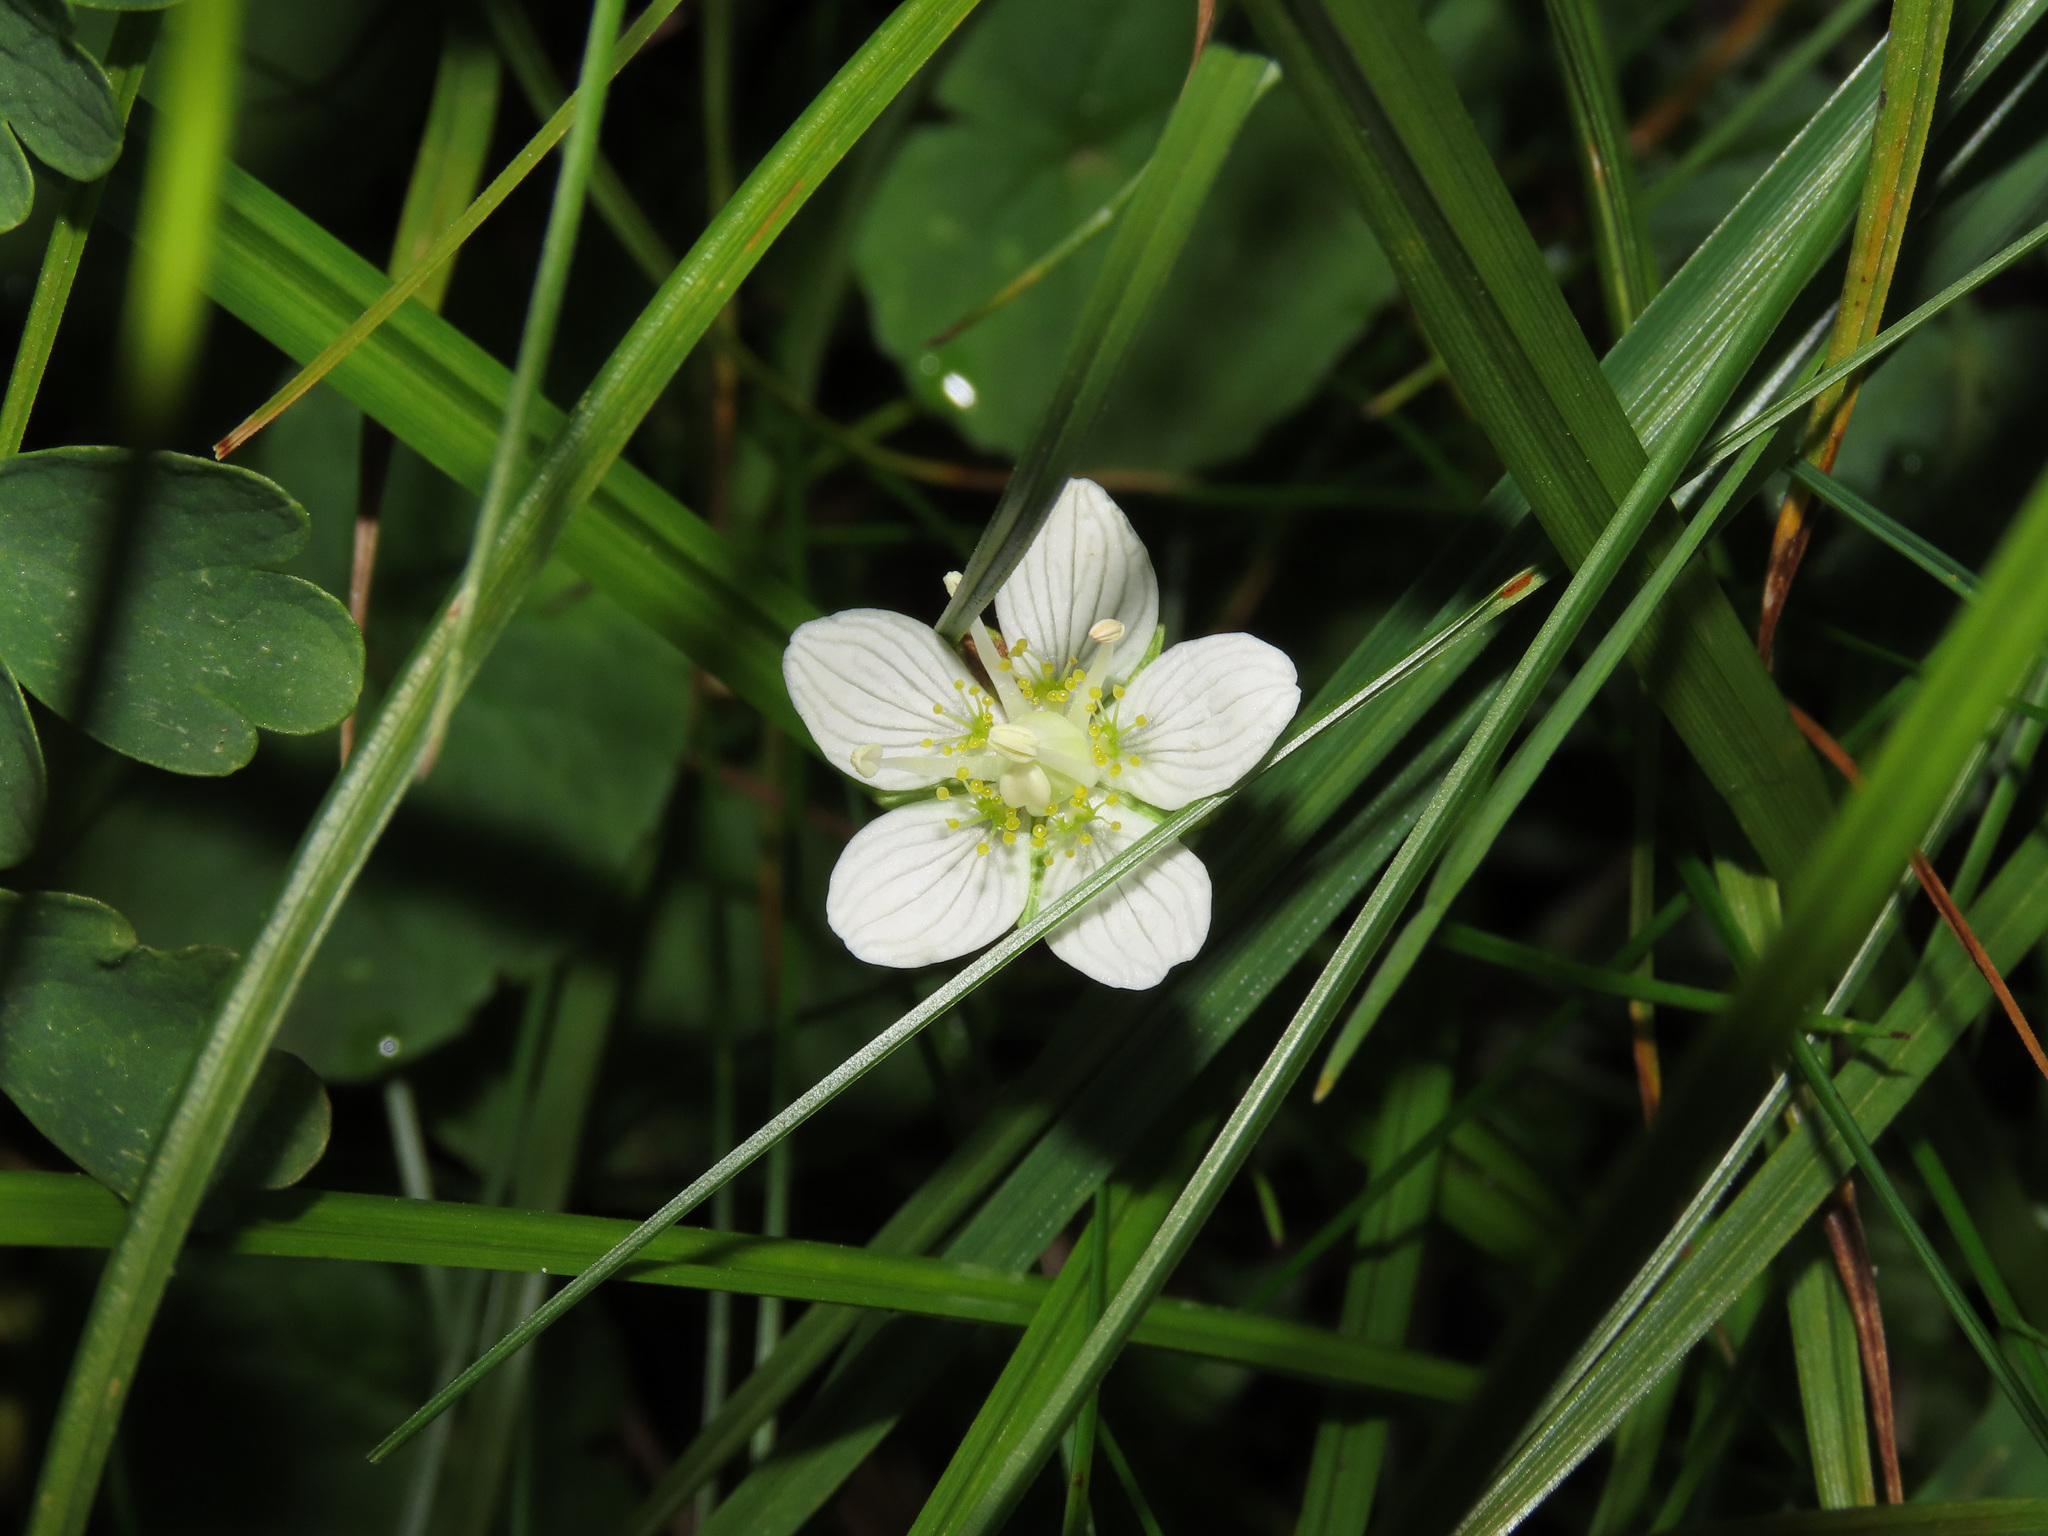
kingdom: Plantae
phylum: Tracheophyta
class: Magnoliopsida
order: Celastrales
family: Parnassiaceae
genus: Parnassia
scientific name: Parnassia palustris
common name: Grass-of-parnassus
